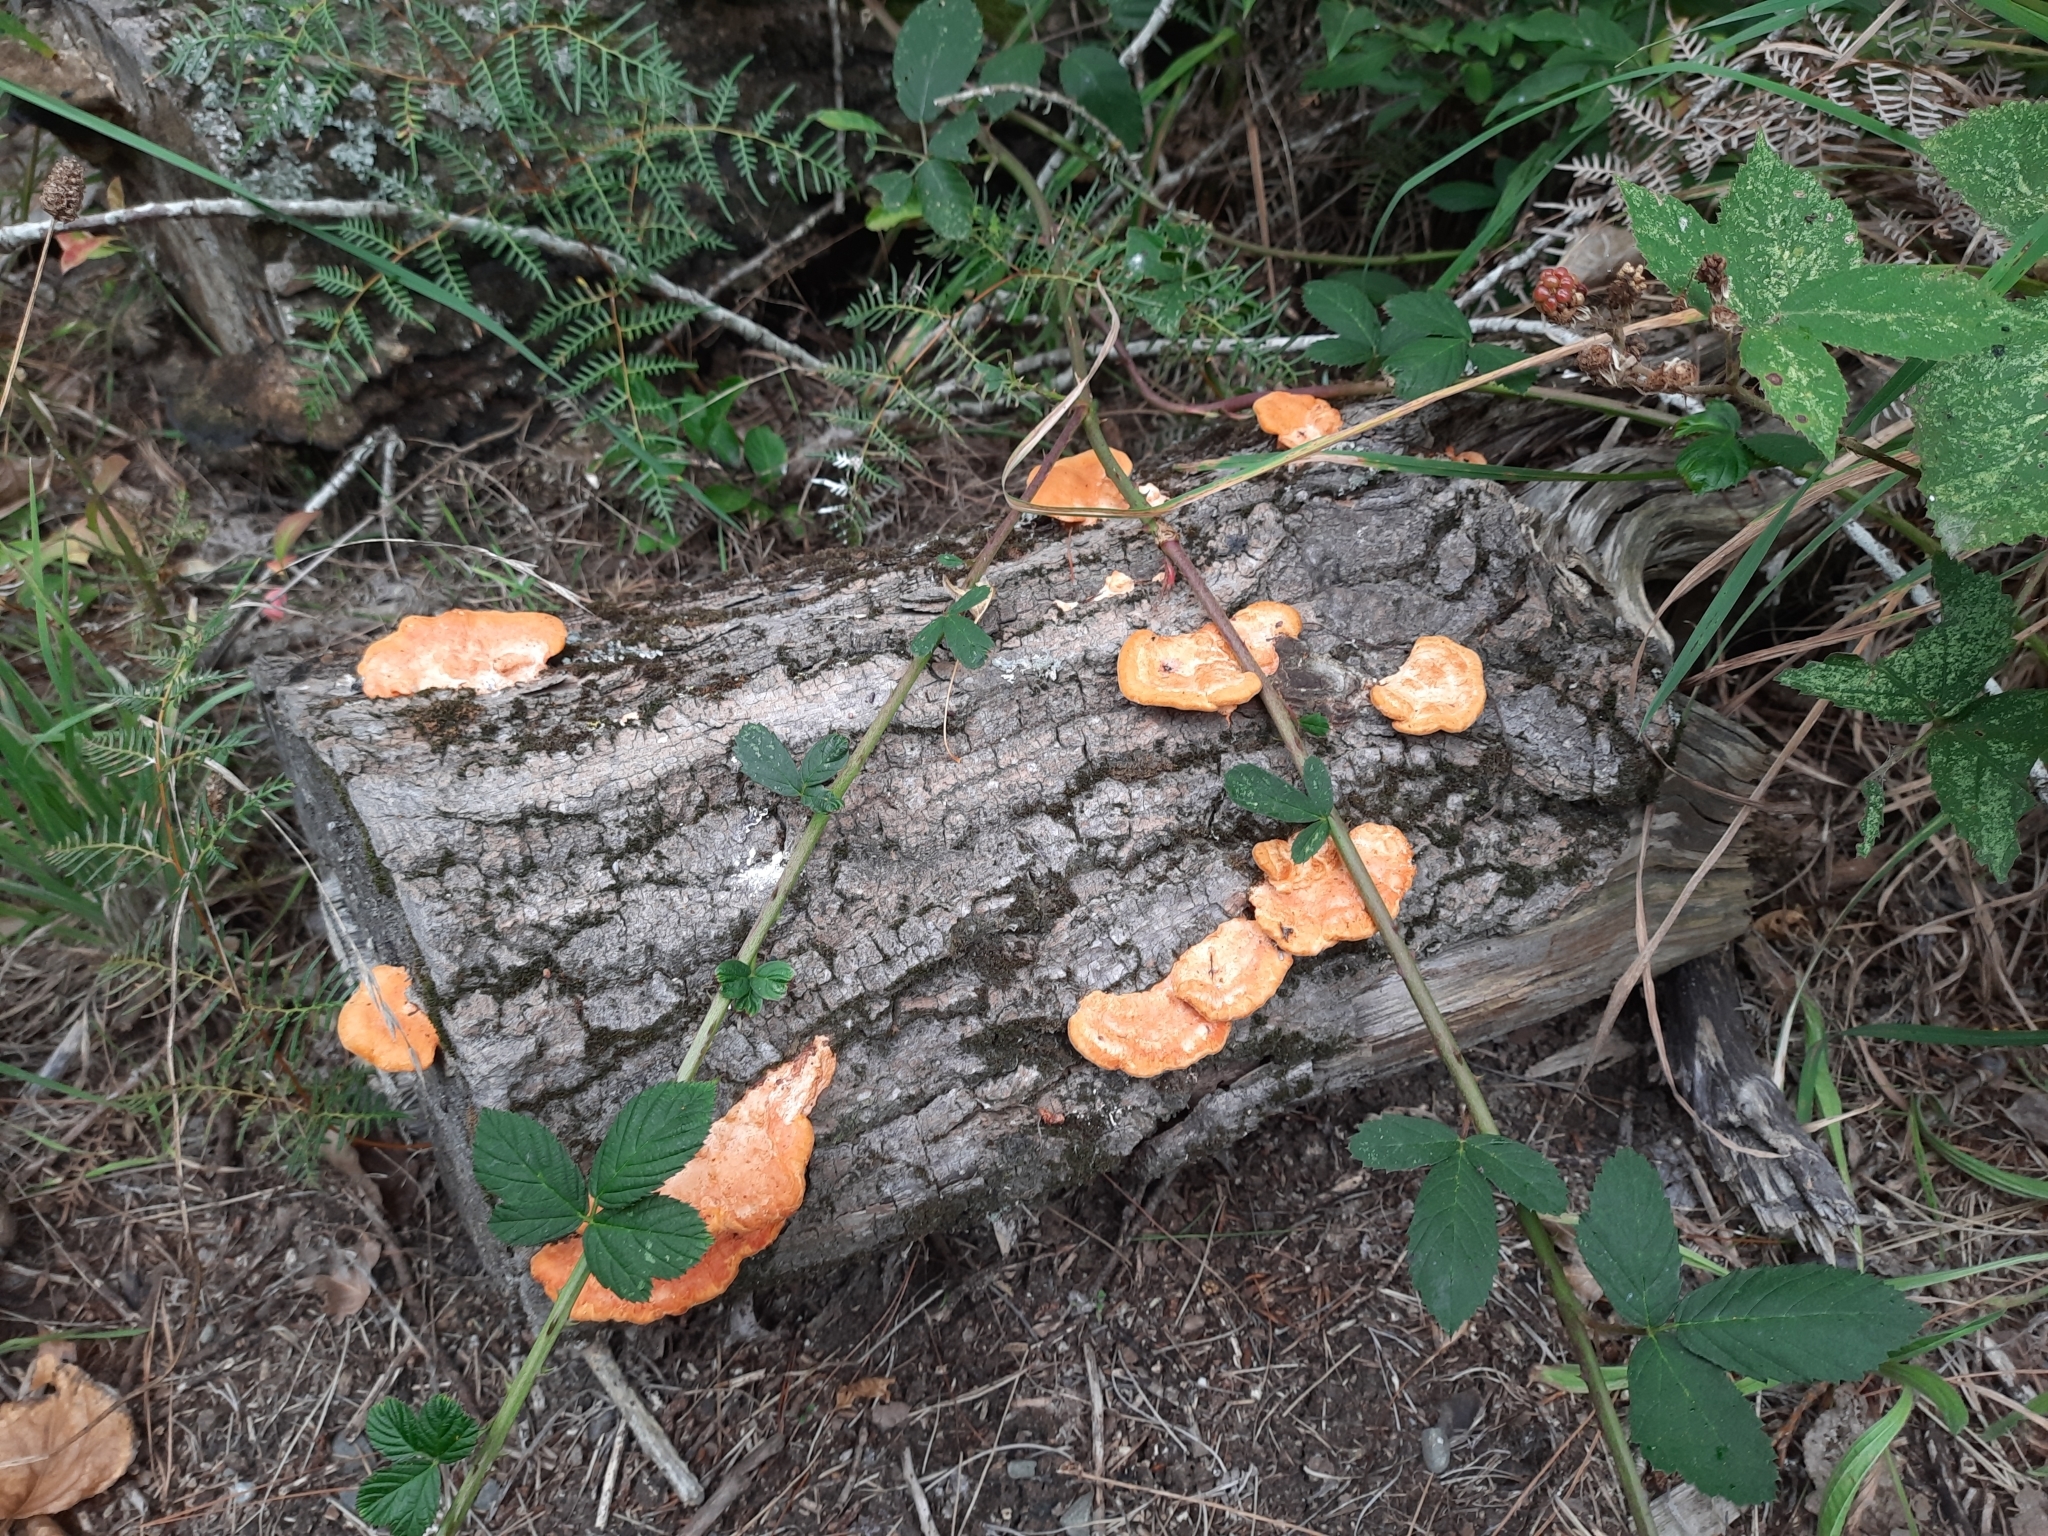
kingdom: Fungi
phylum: Basidiomycota
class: Agaricomycetes
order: Polyporales
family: Polyporaceae
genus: Trametes
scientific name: Trametes coccinea
